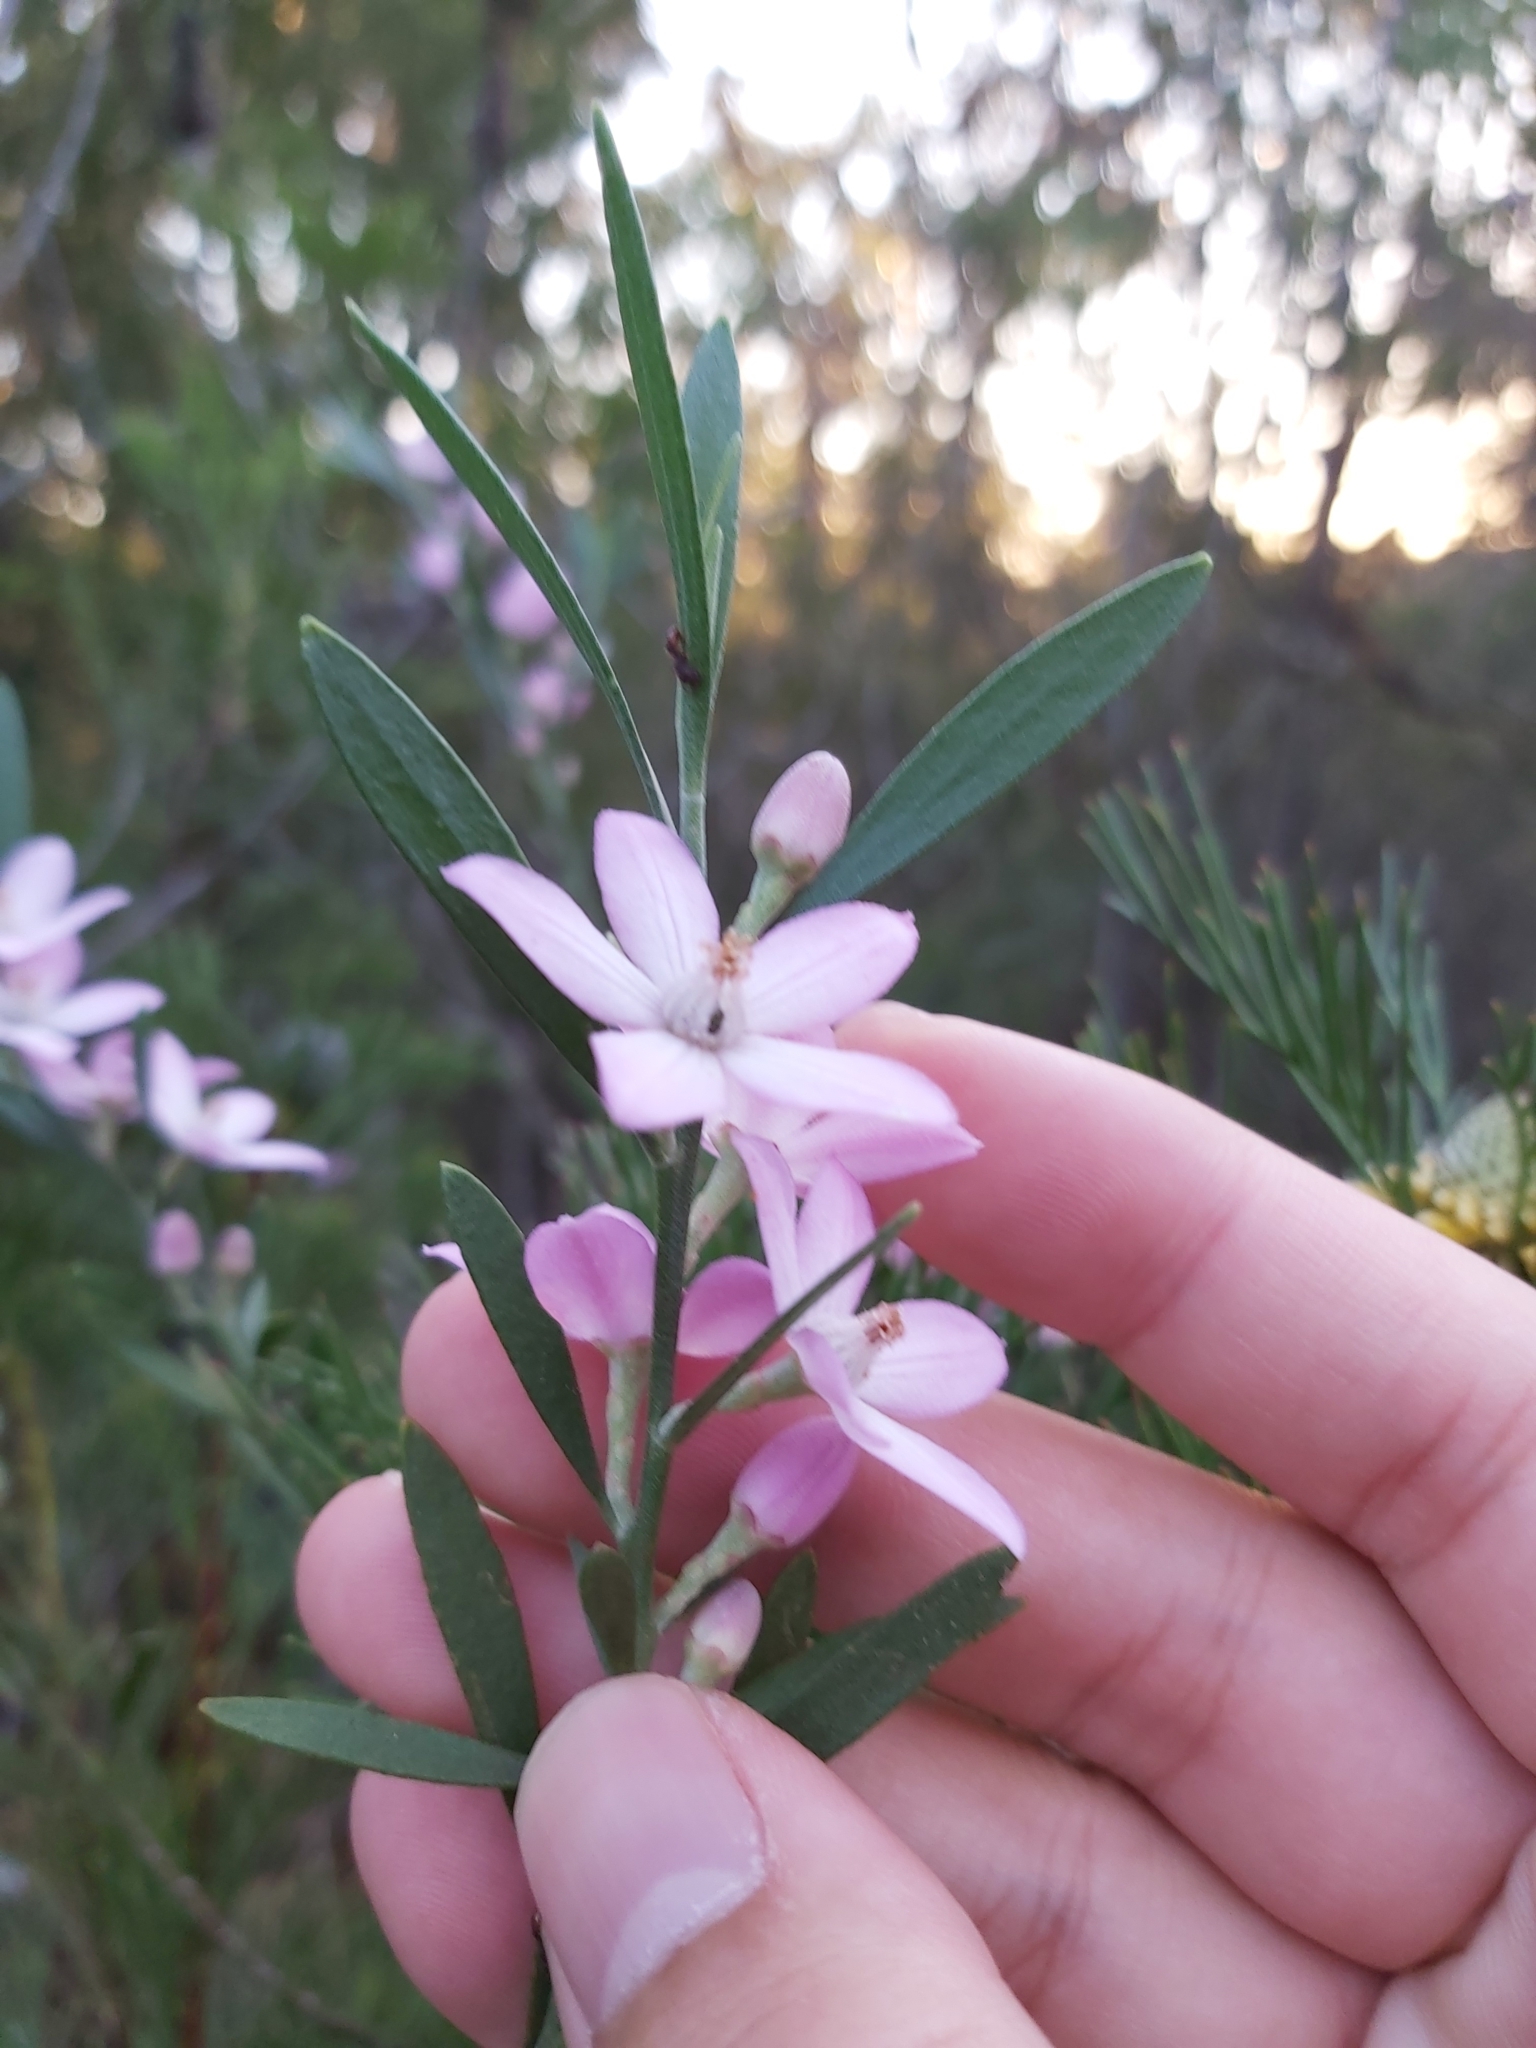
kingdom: Plantae
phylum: Tracheophyta
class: Magnoliopsida
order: Sapindales
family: Rutaceae
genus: Eriostemon
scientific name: Eriostemon australasius
